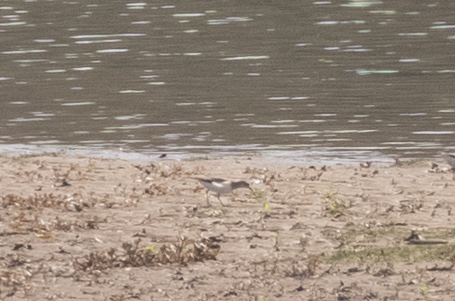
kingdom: Animalia
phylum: Chordata
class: Aves
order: Charadriiformes
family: Scolopacidae
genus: Actitis
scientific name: Actitis macularius
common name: Spotted sandpiper
